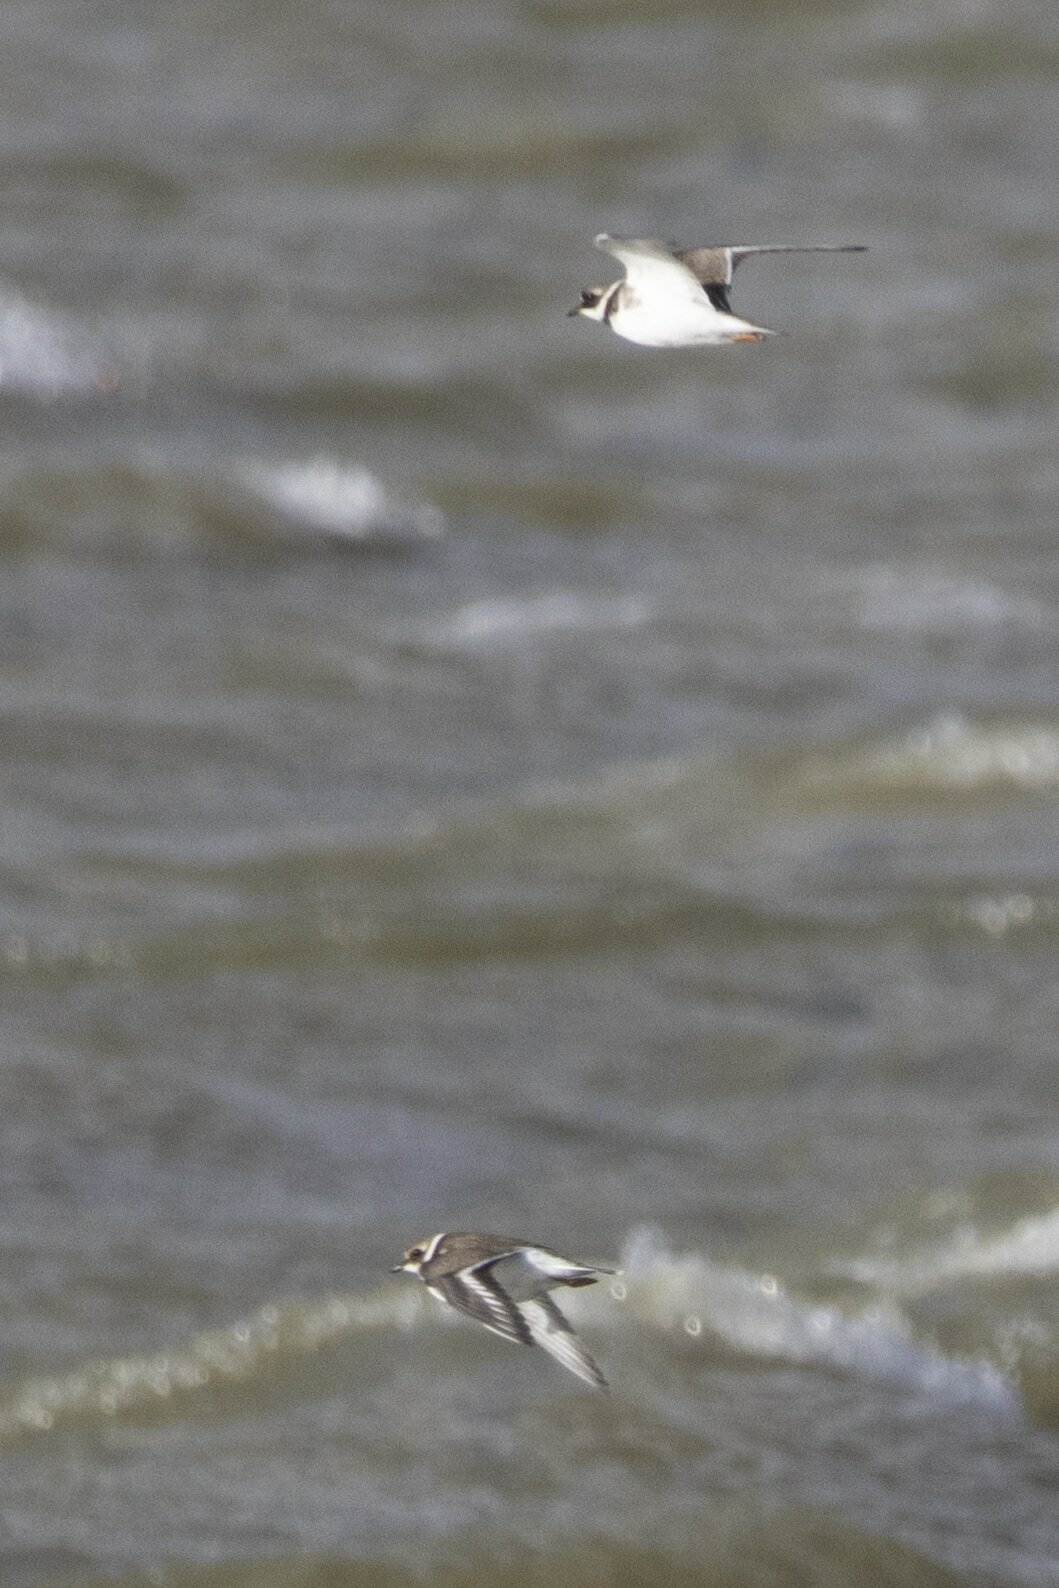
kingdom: Animalia
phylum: Chordata
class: Aves
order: Charadriiformes
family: Charadriidae
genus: Charadrius
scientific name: Charadrius hiaticula
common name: Common ringed plover
